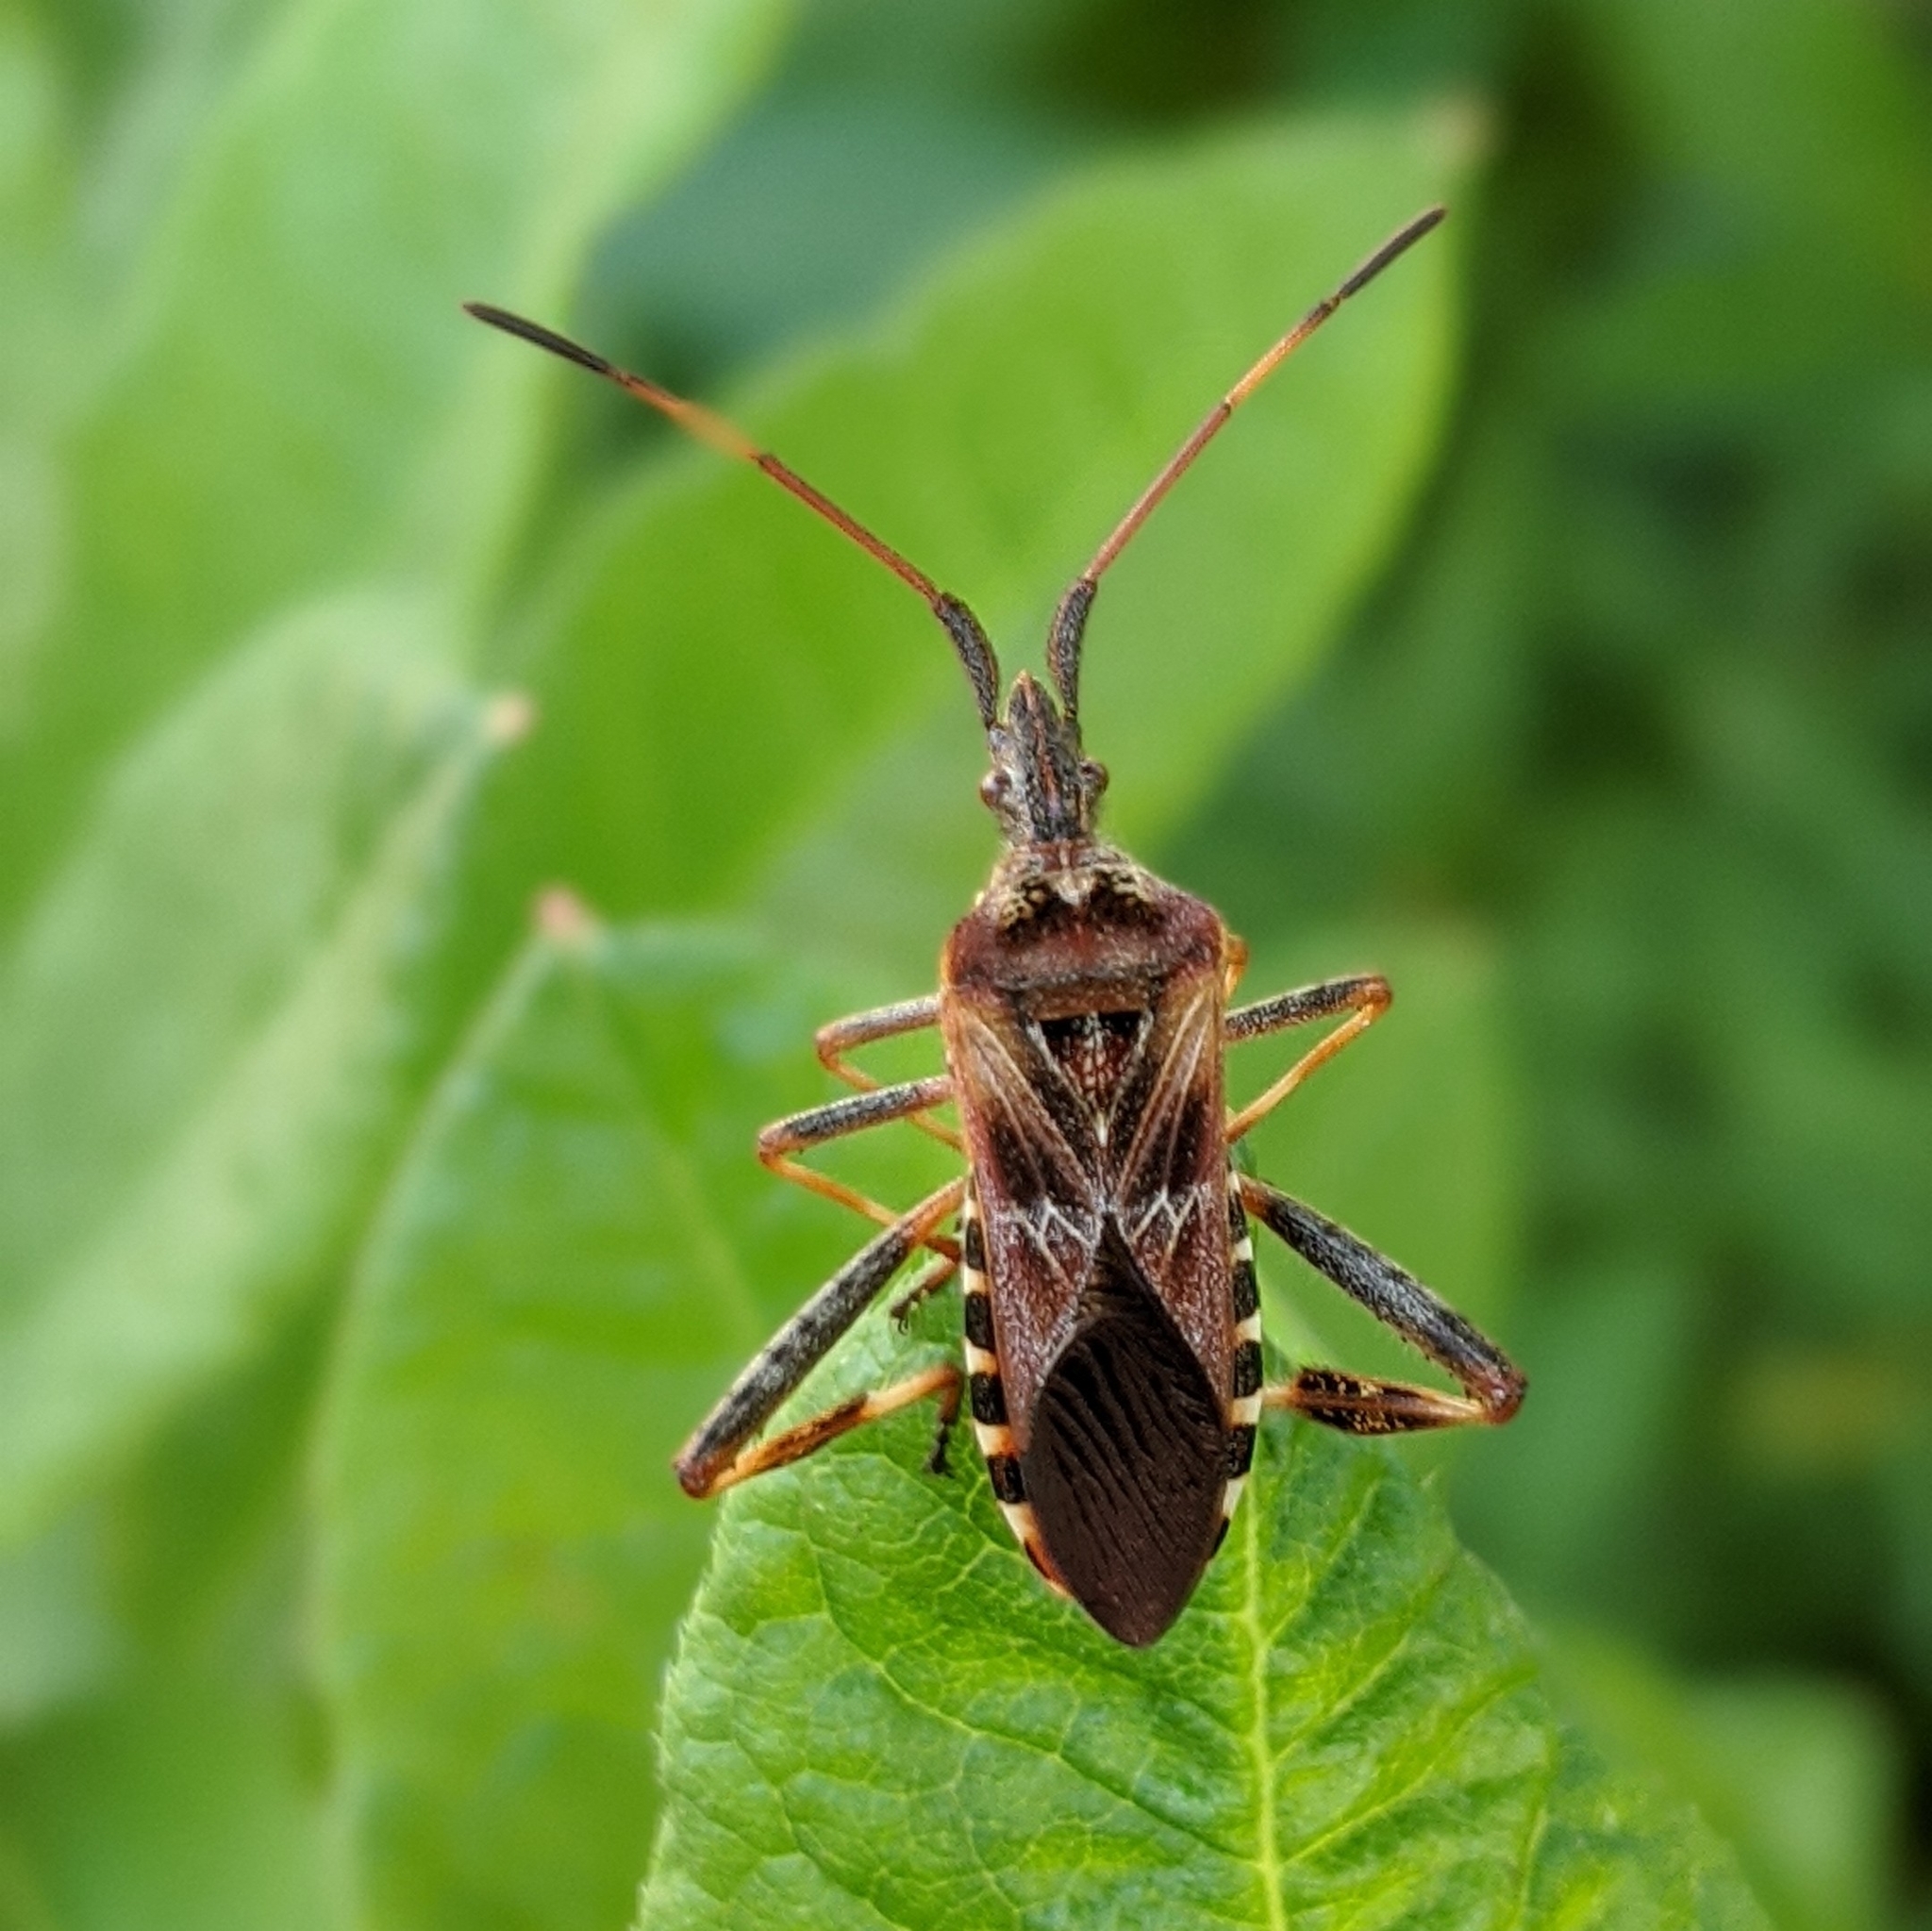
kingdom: Animalia
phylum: Arthropoda
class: Insecta
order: Hemiptera
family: Coreidae
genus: Leptoglossus
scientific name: Leptoglossus occidentalis
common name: Western conifer-seed bug
